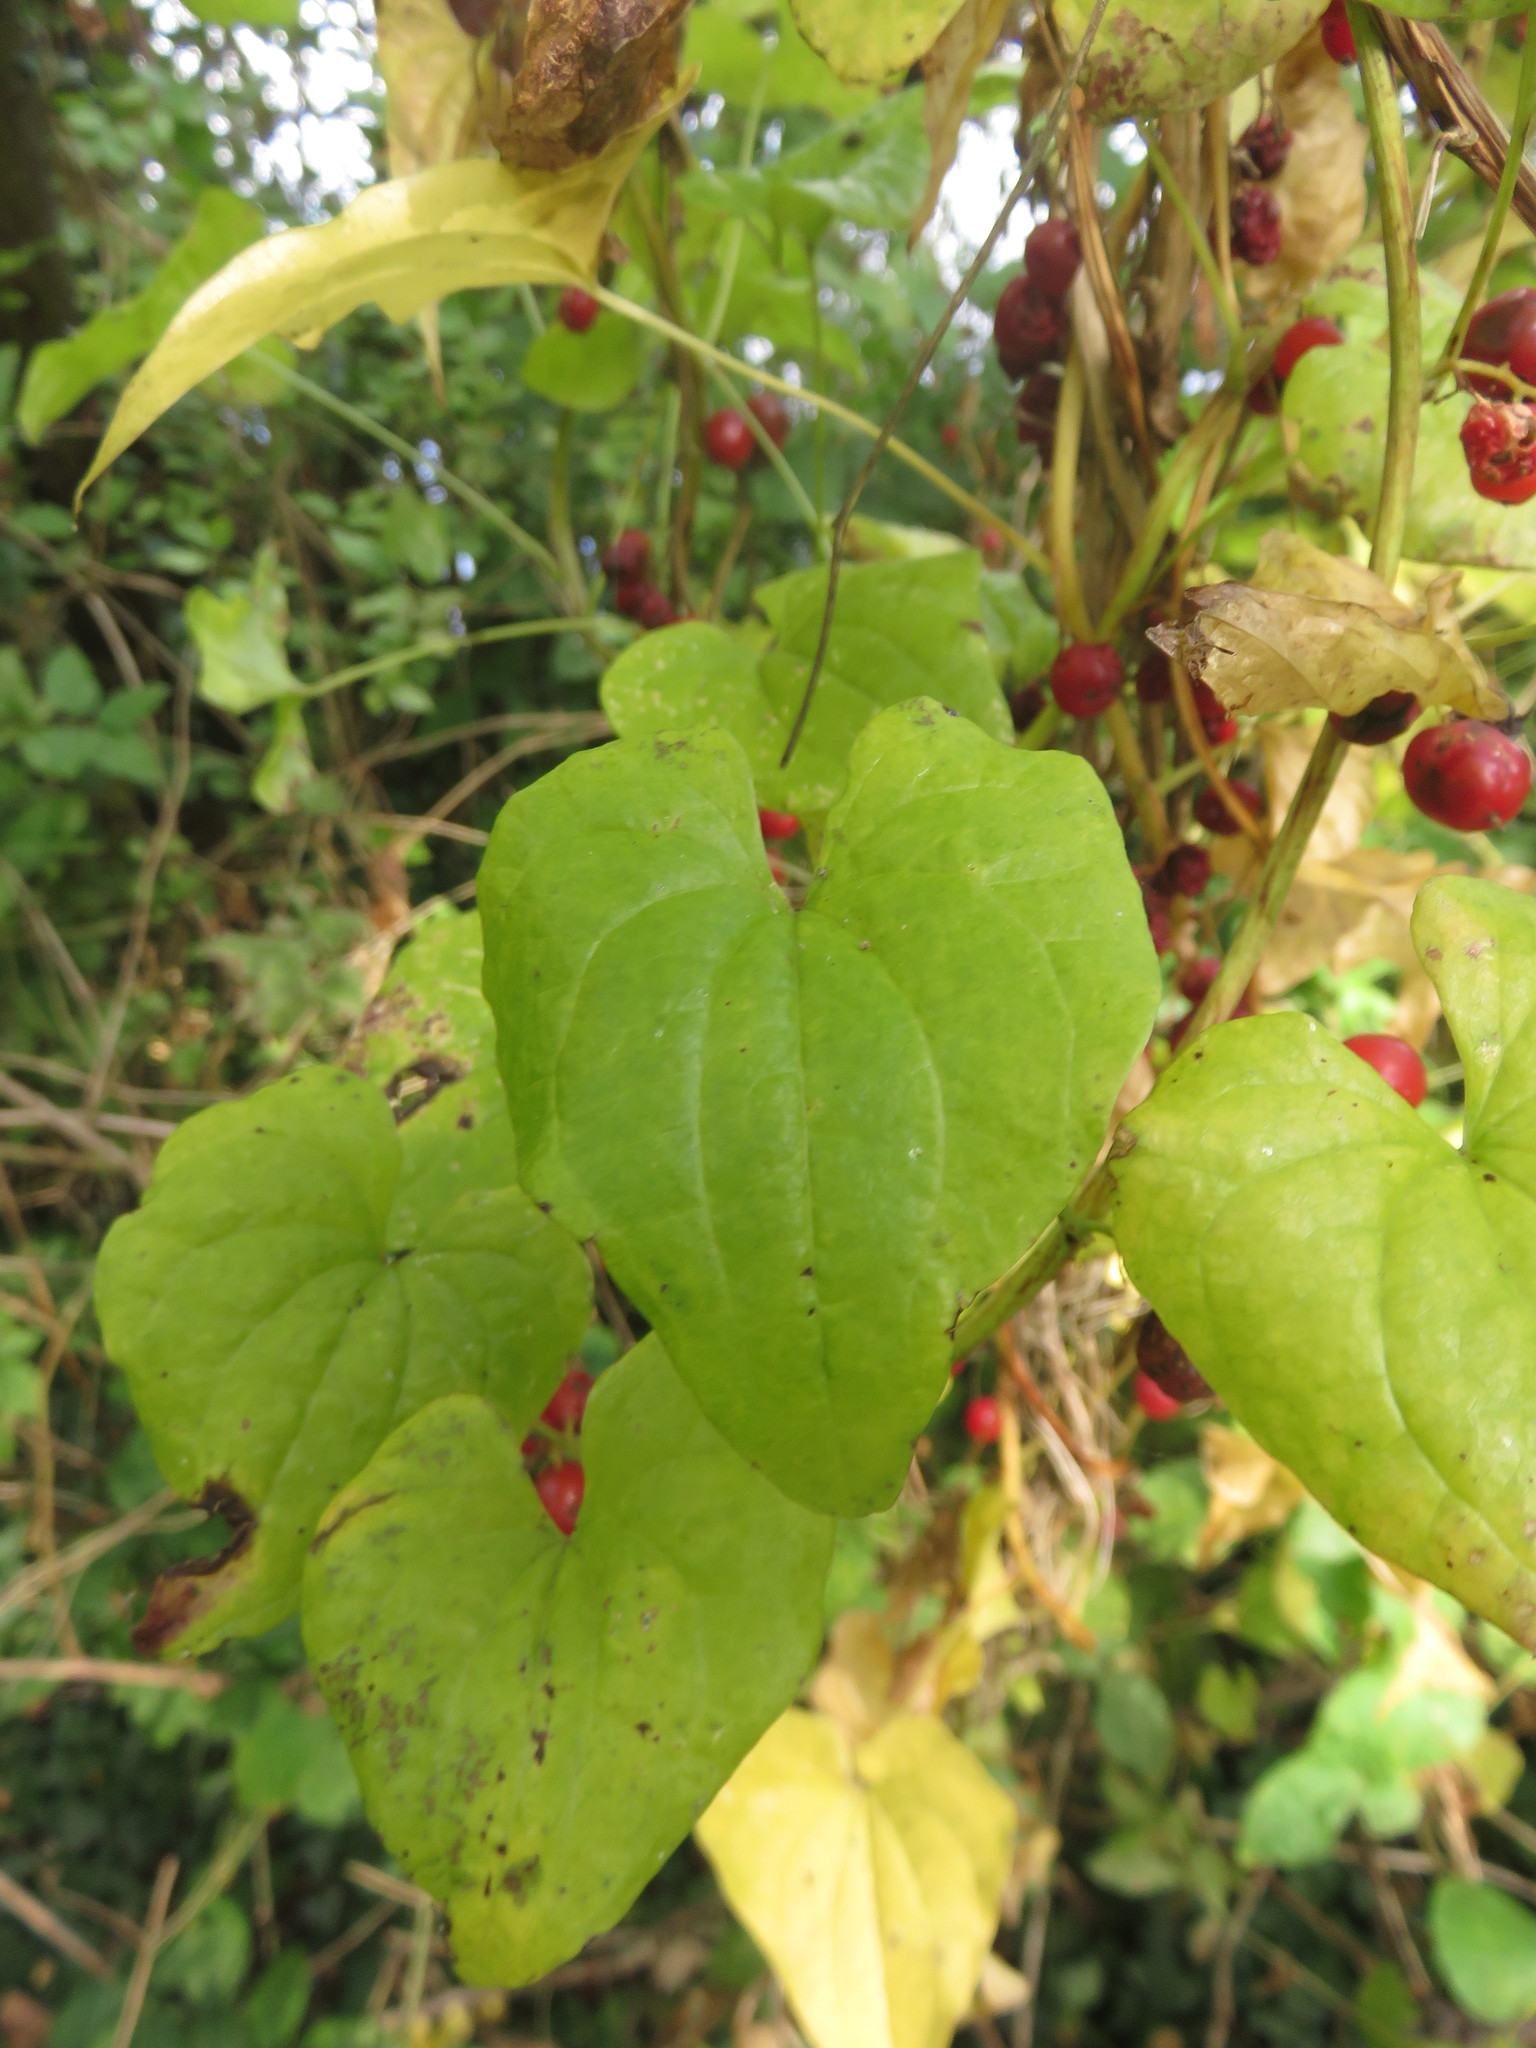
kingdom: Plantae
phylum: Tracheophyta
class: Liliopsida
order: Dioscoreales
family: Dioscoreaceae
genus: Dioscorea
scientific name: Dioscorea communis
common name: Black-bindweed
